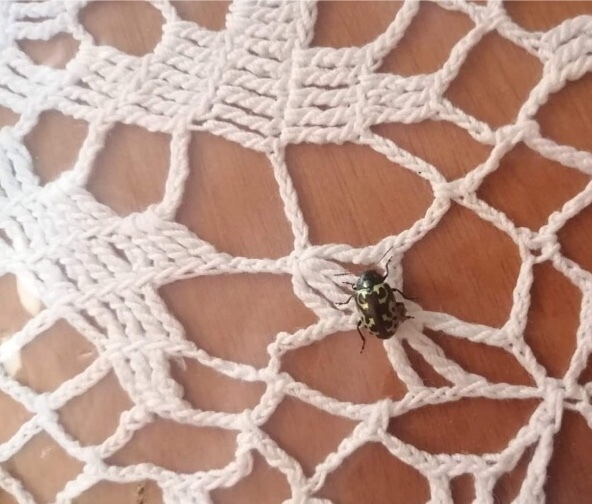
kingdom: Animalia
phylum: Arthropoda
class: Insecta
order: Coleoptera
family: Chrysomelidae
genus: Calligrapha
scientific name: Calligrapha
